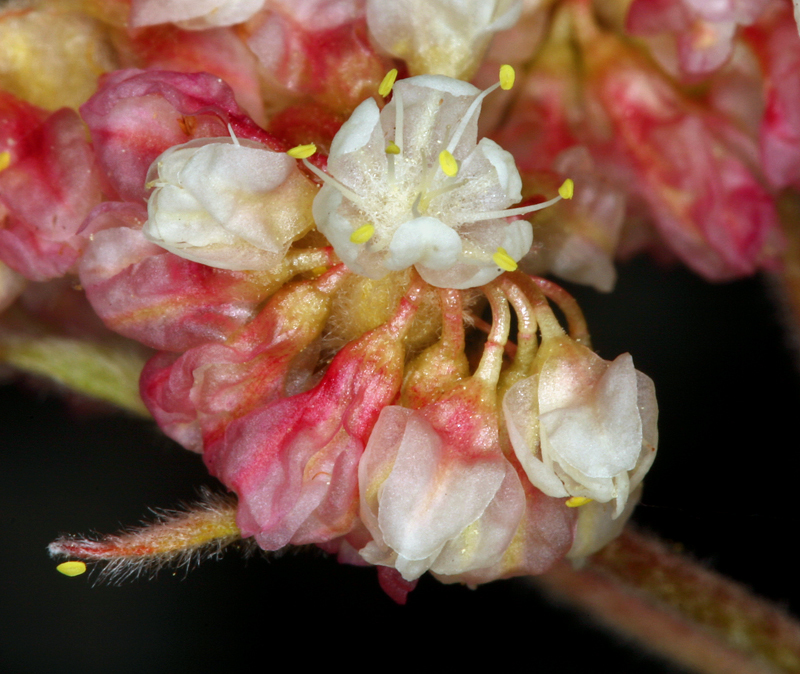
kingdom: Plantae
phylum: Tracheophyta
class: Magnoliopsida
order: Caryophyllales
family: Polygonaceae
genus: Eriogonum
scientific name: Eriogonum ursinum
